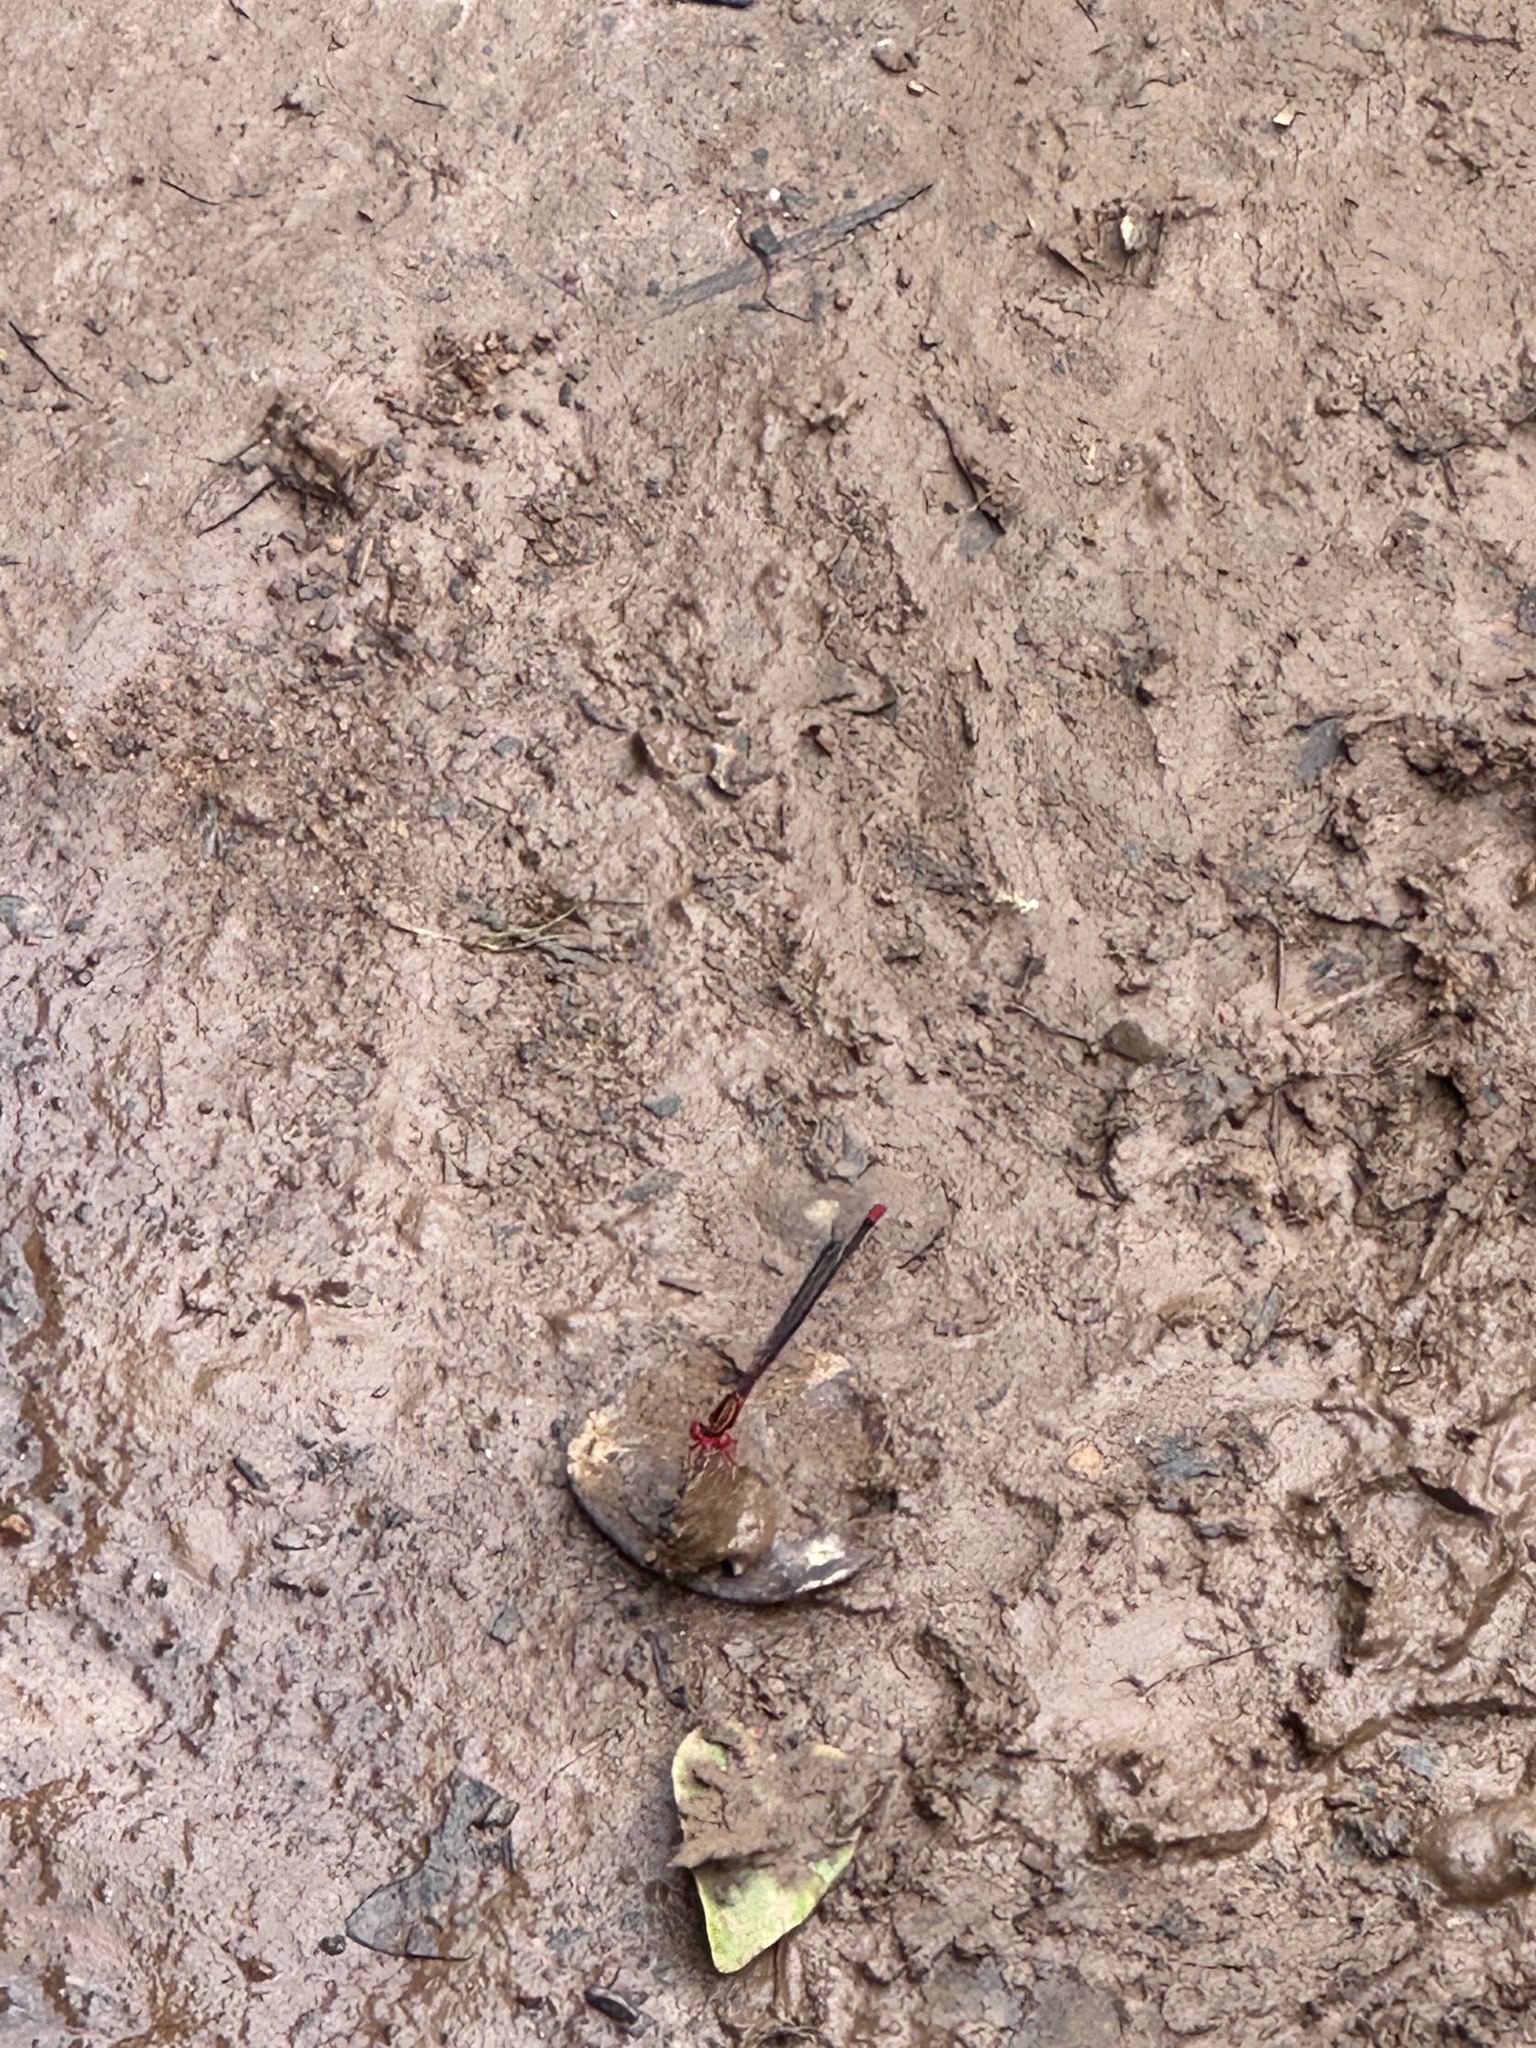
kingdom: Animalia
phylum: Arthropoda
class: Insecta
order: Odonata
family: Coenagrionidae
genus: Megalagrion
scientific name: Megalagrion oresitrophum
